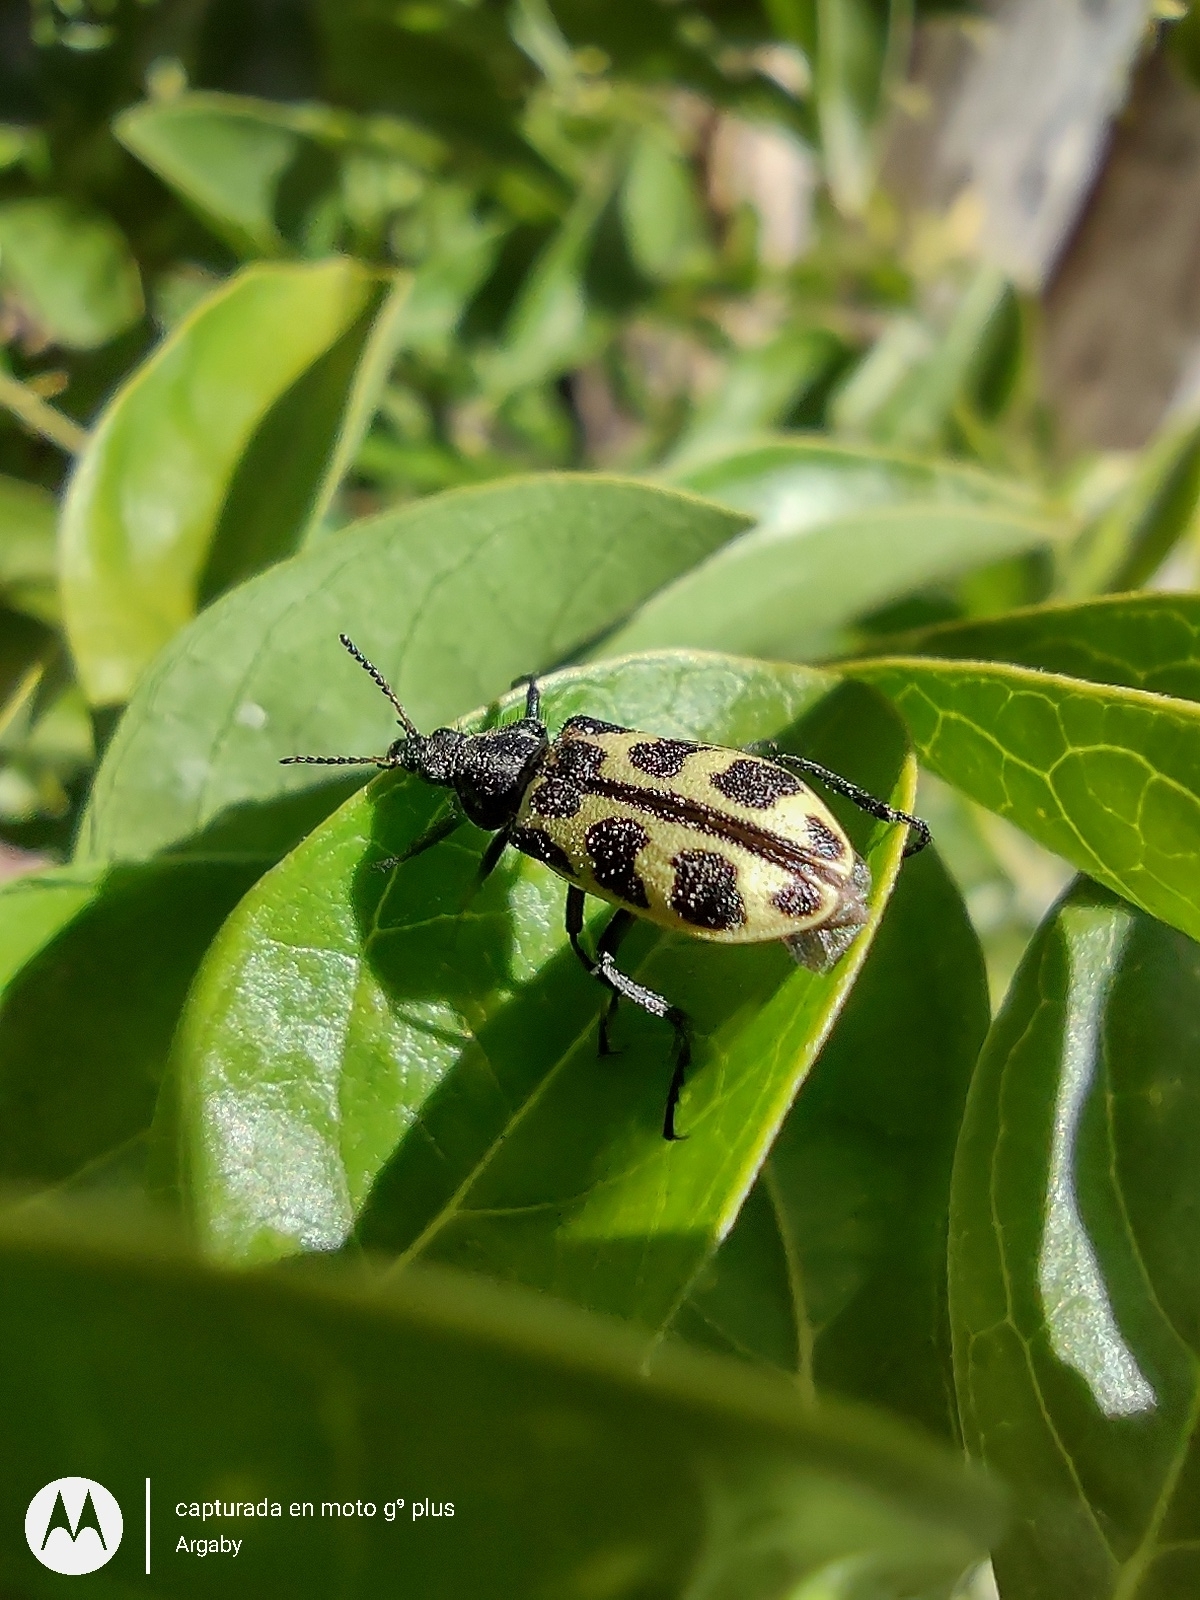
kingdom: Animalia
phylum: Arthropoda
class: Insecta
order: Coleoptera
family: Melyridae
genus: Astylus
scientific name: Astylus atromaculatus
